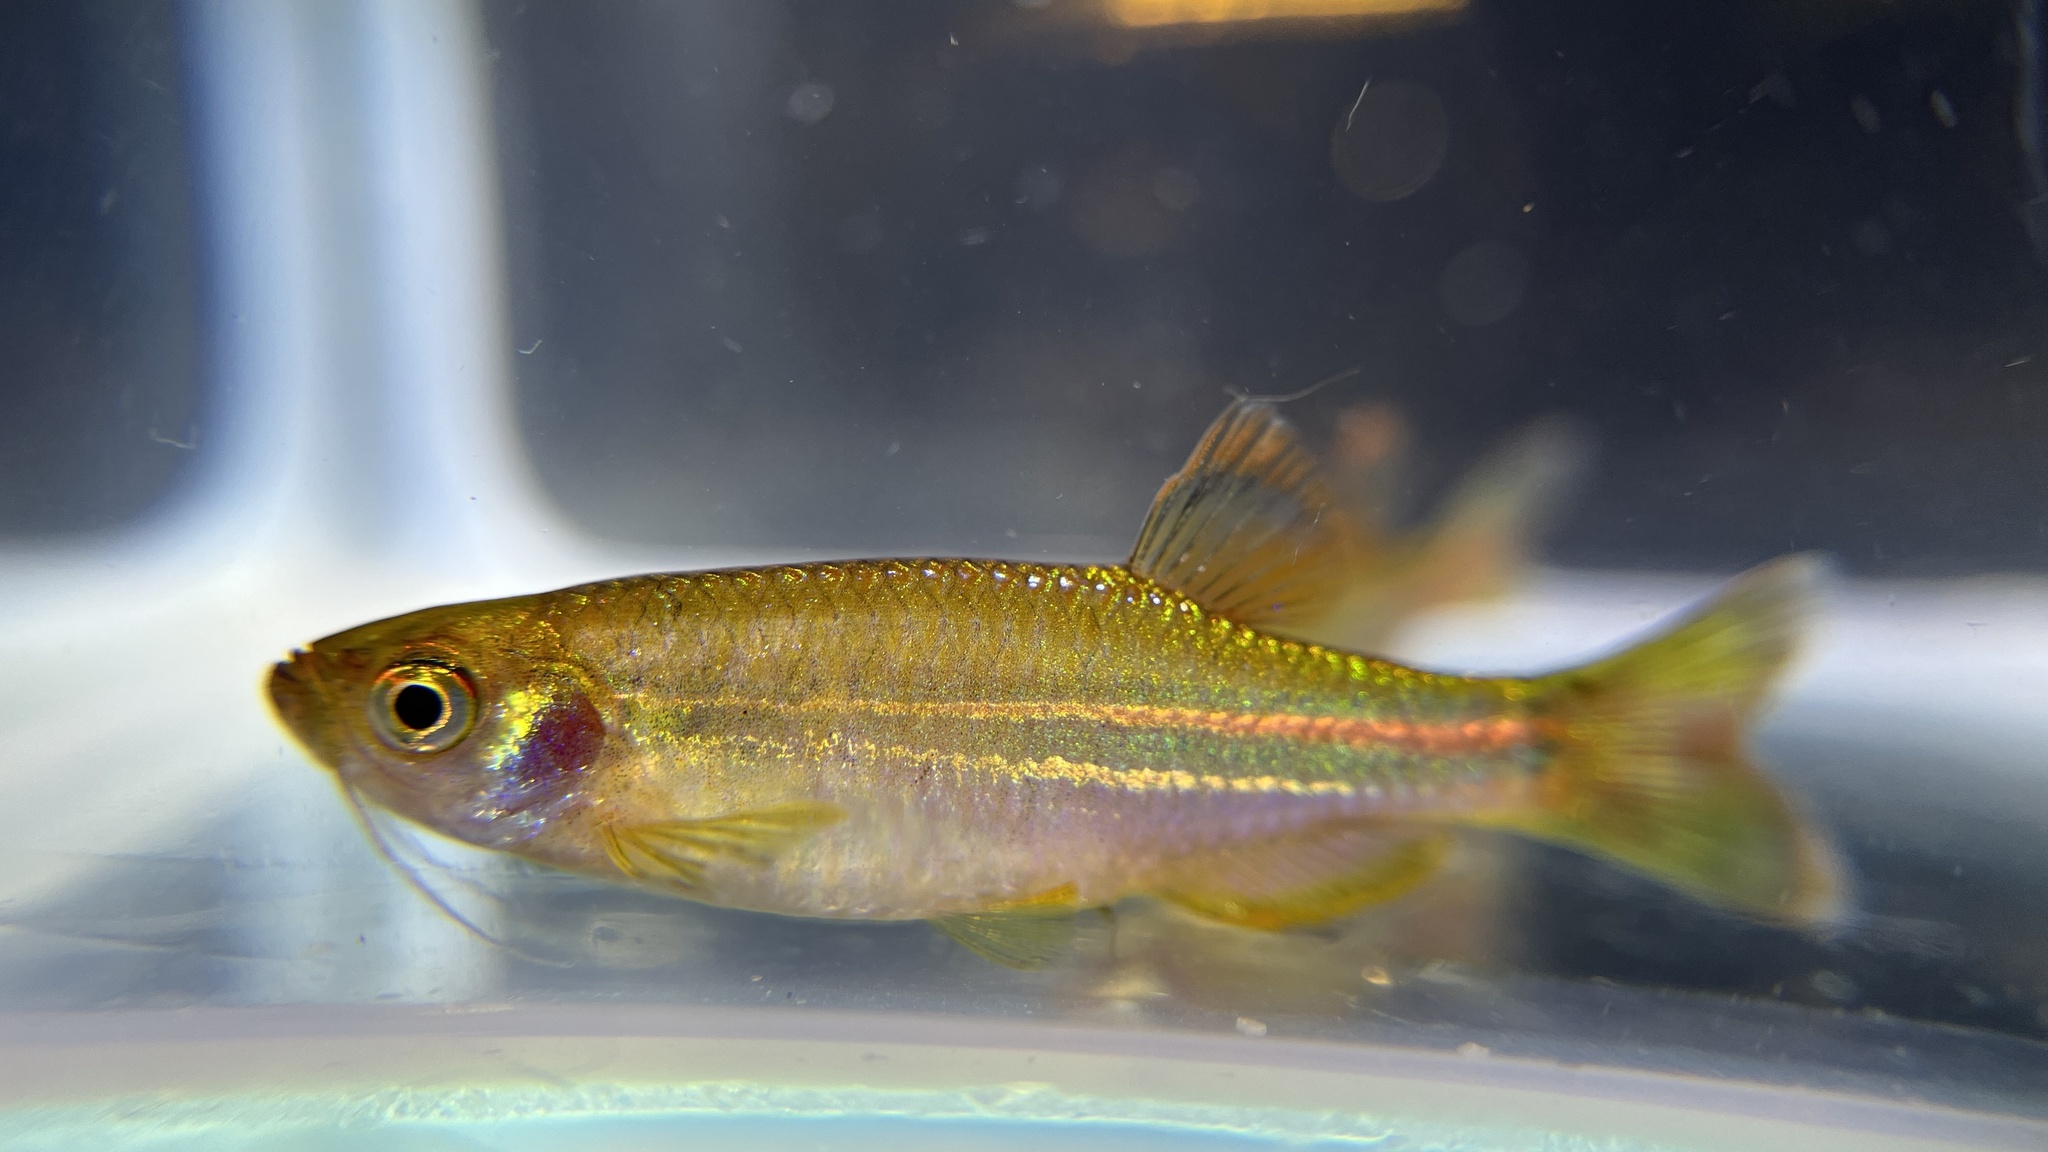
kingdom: Animalia
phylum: Chordata
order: Cypriniformes
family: Cyprinidae
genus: Danio
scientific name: Danio albolineatus
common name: Pearl danio
